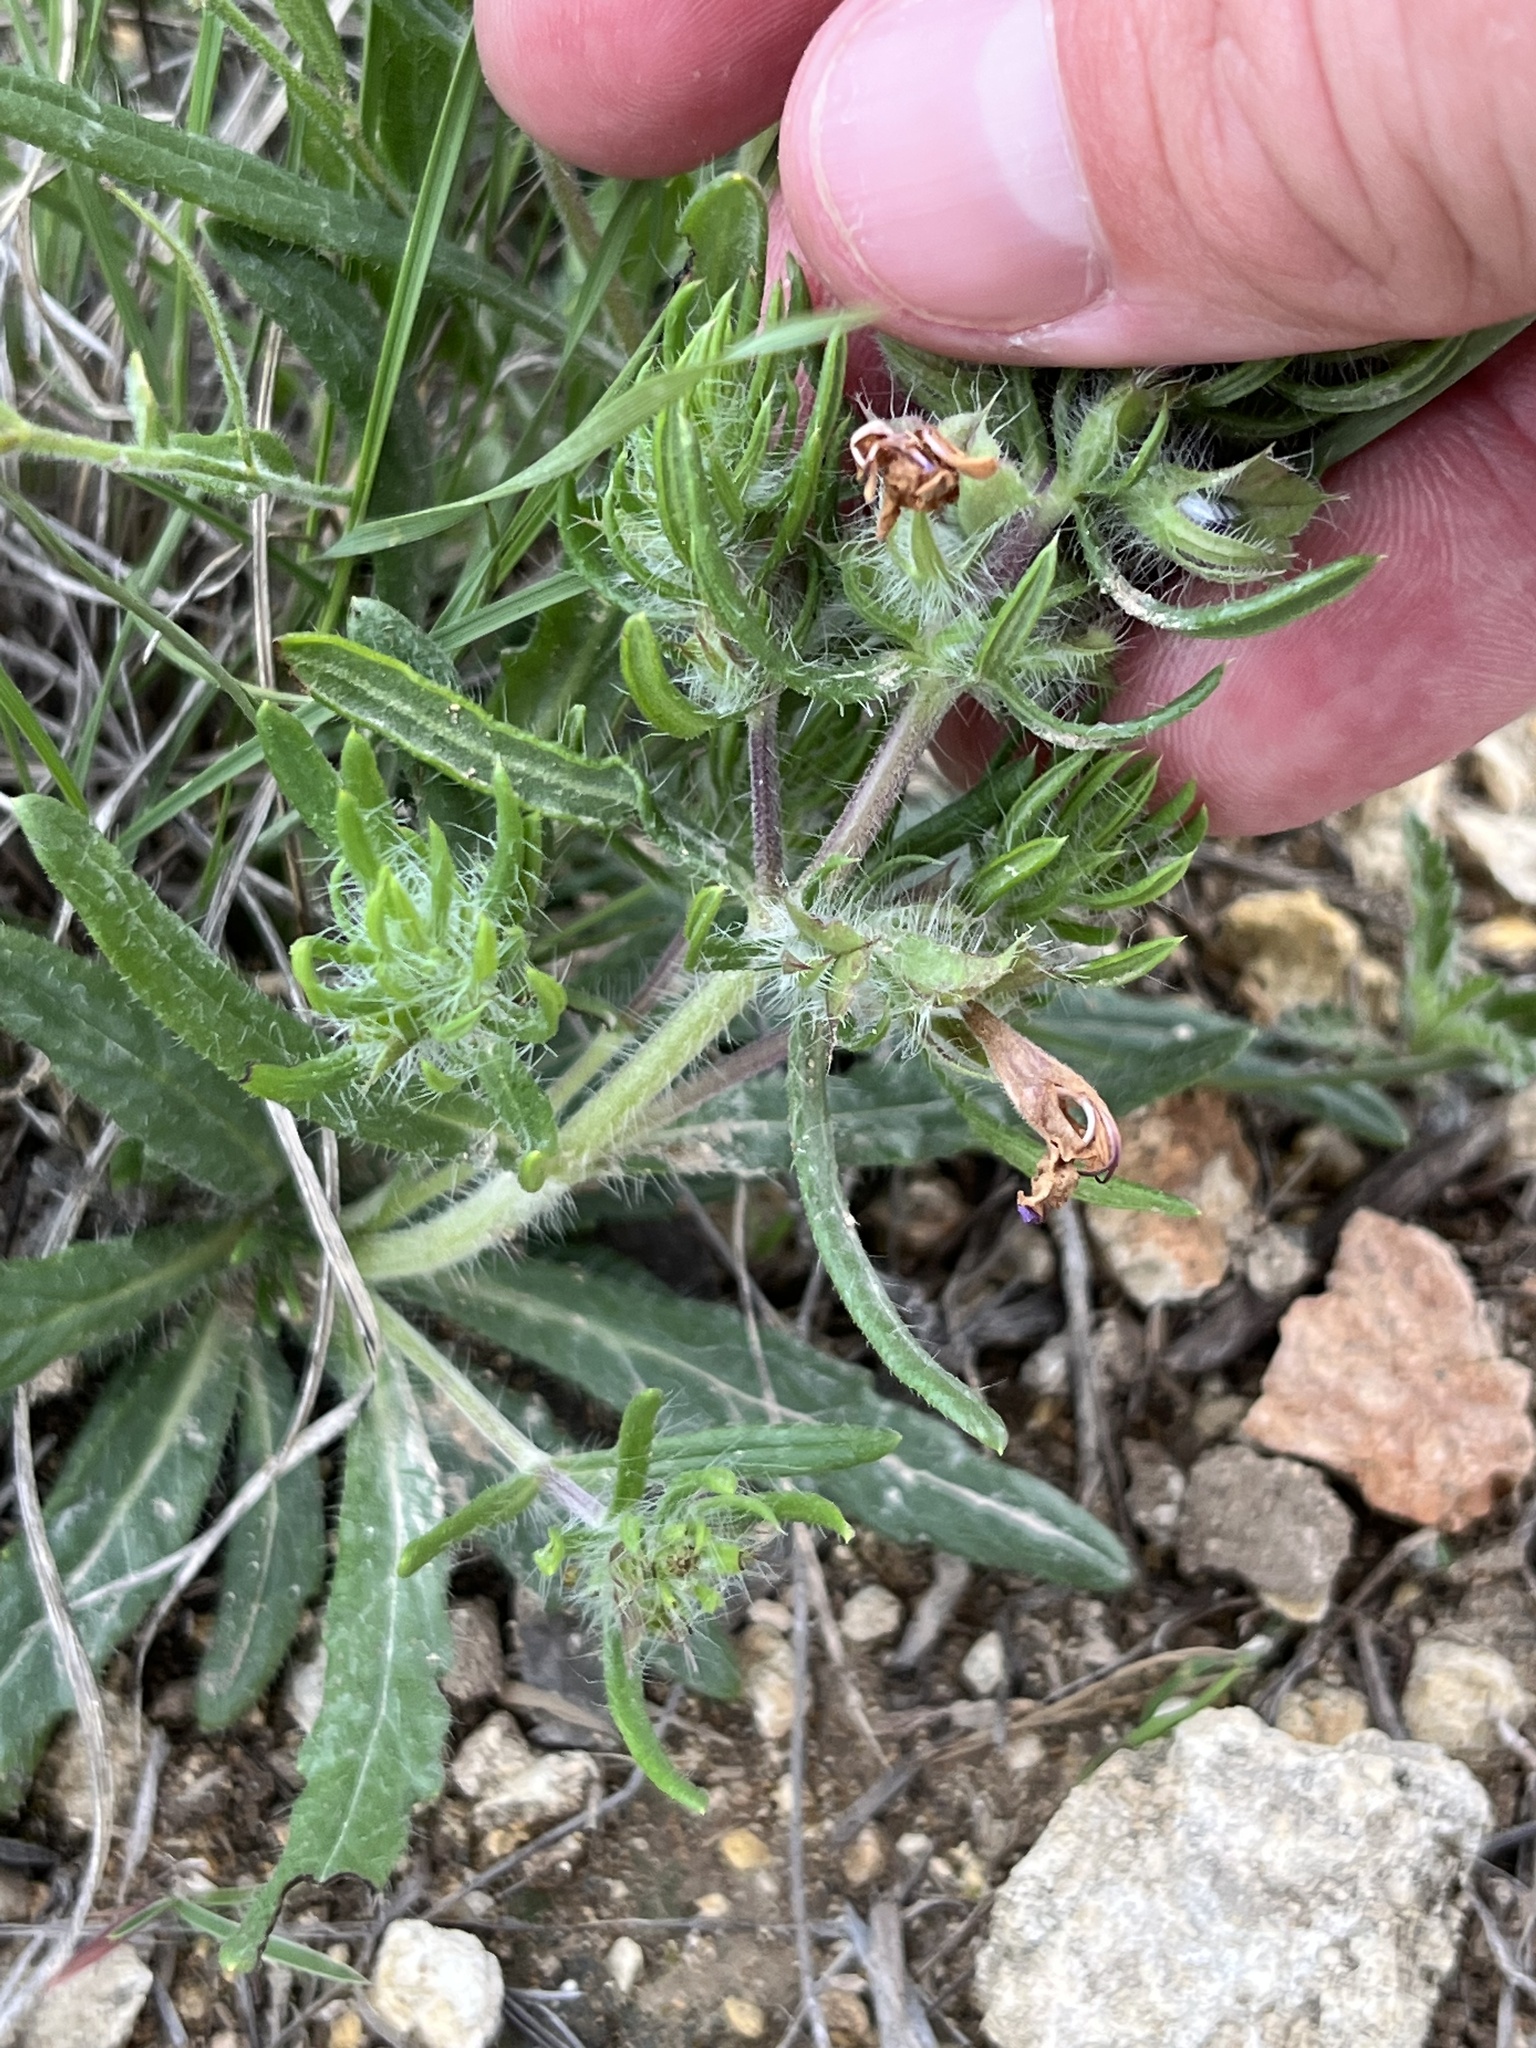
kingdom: Plantae
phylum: Tracheophyta
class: Magnoliopsida
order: Lamiales
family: Lamiaceae
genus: Salvia
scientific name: Salvia texana
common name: Texas sage
